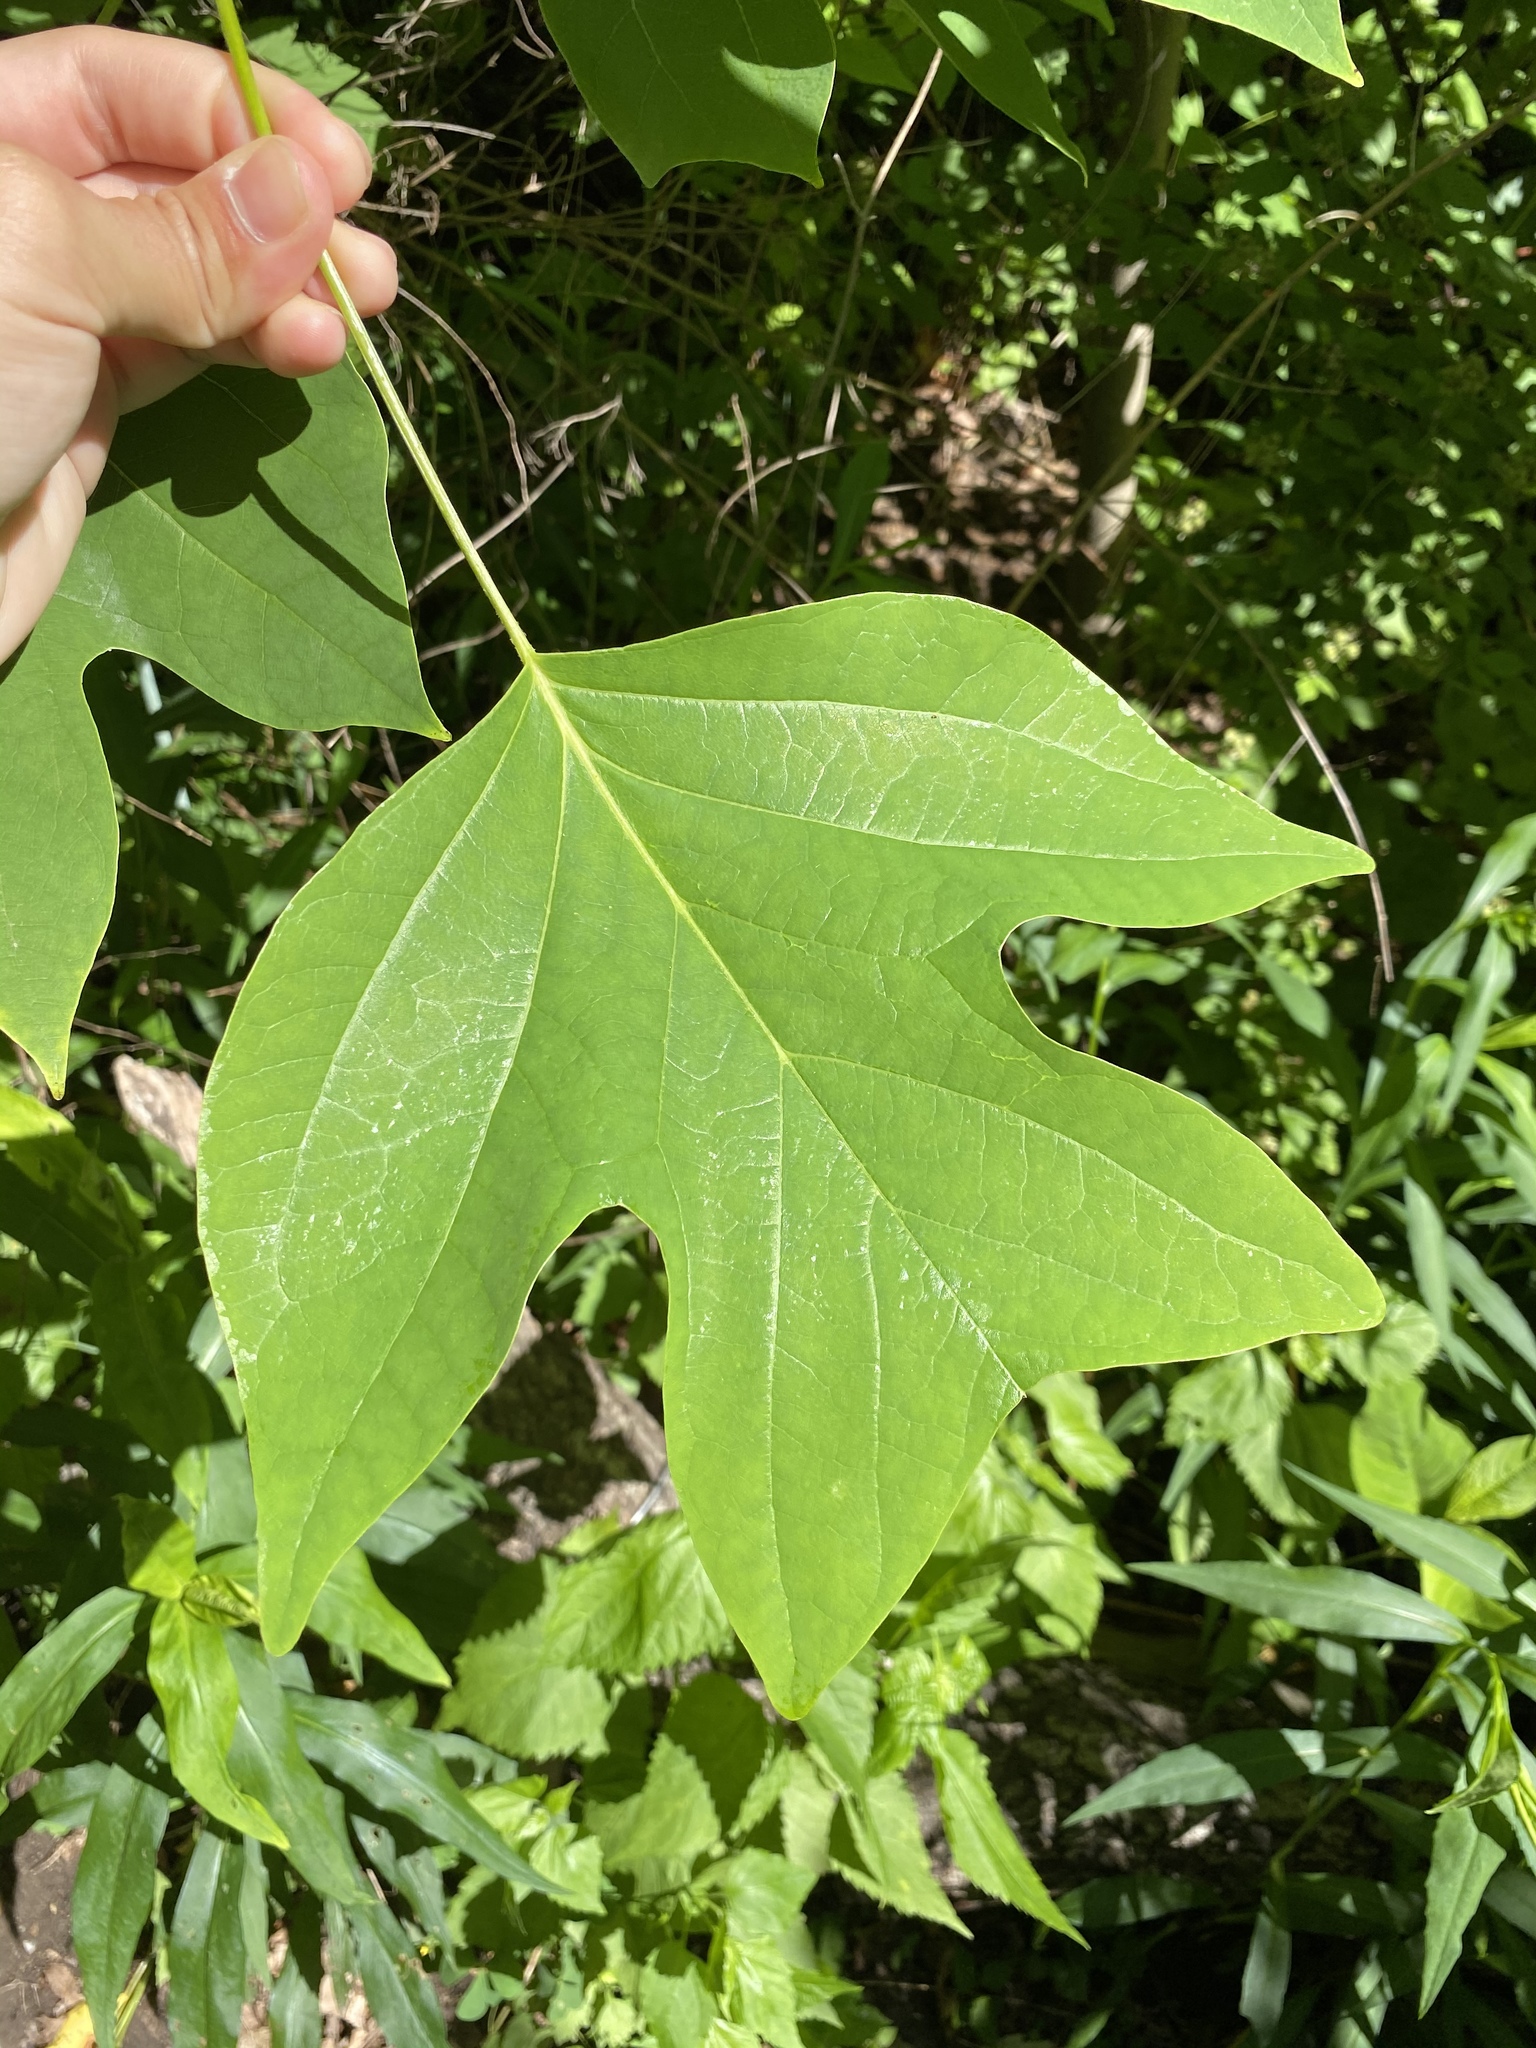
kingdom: Plantae
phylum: Tracheophyta
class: Magnoliopsida
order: Magnoliales
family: Magnoliaceae
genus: Liriodendron
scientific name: Liriodendron tulipifera
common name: Tulip tree
